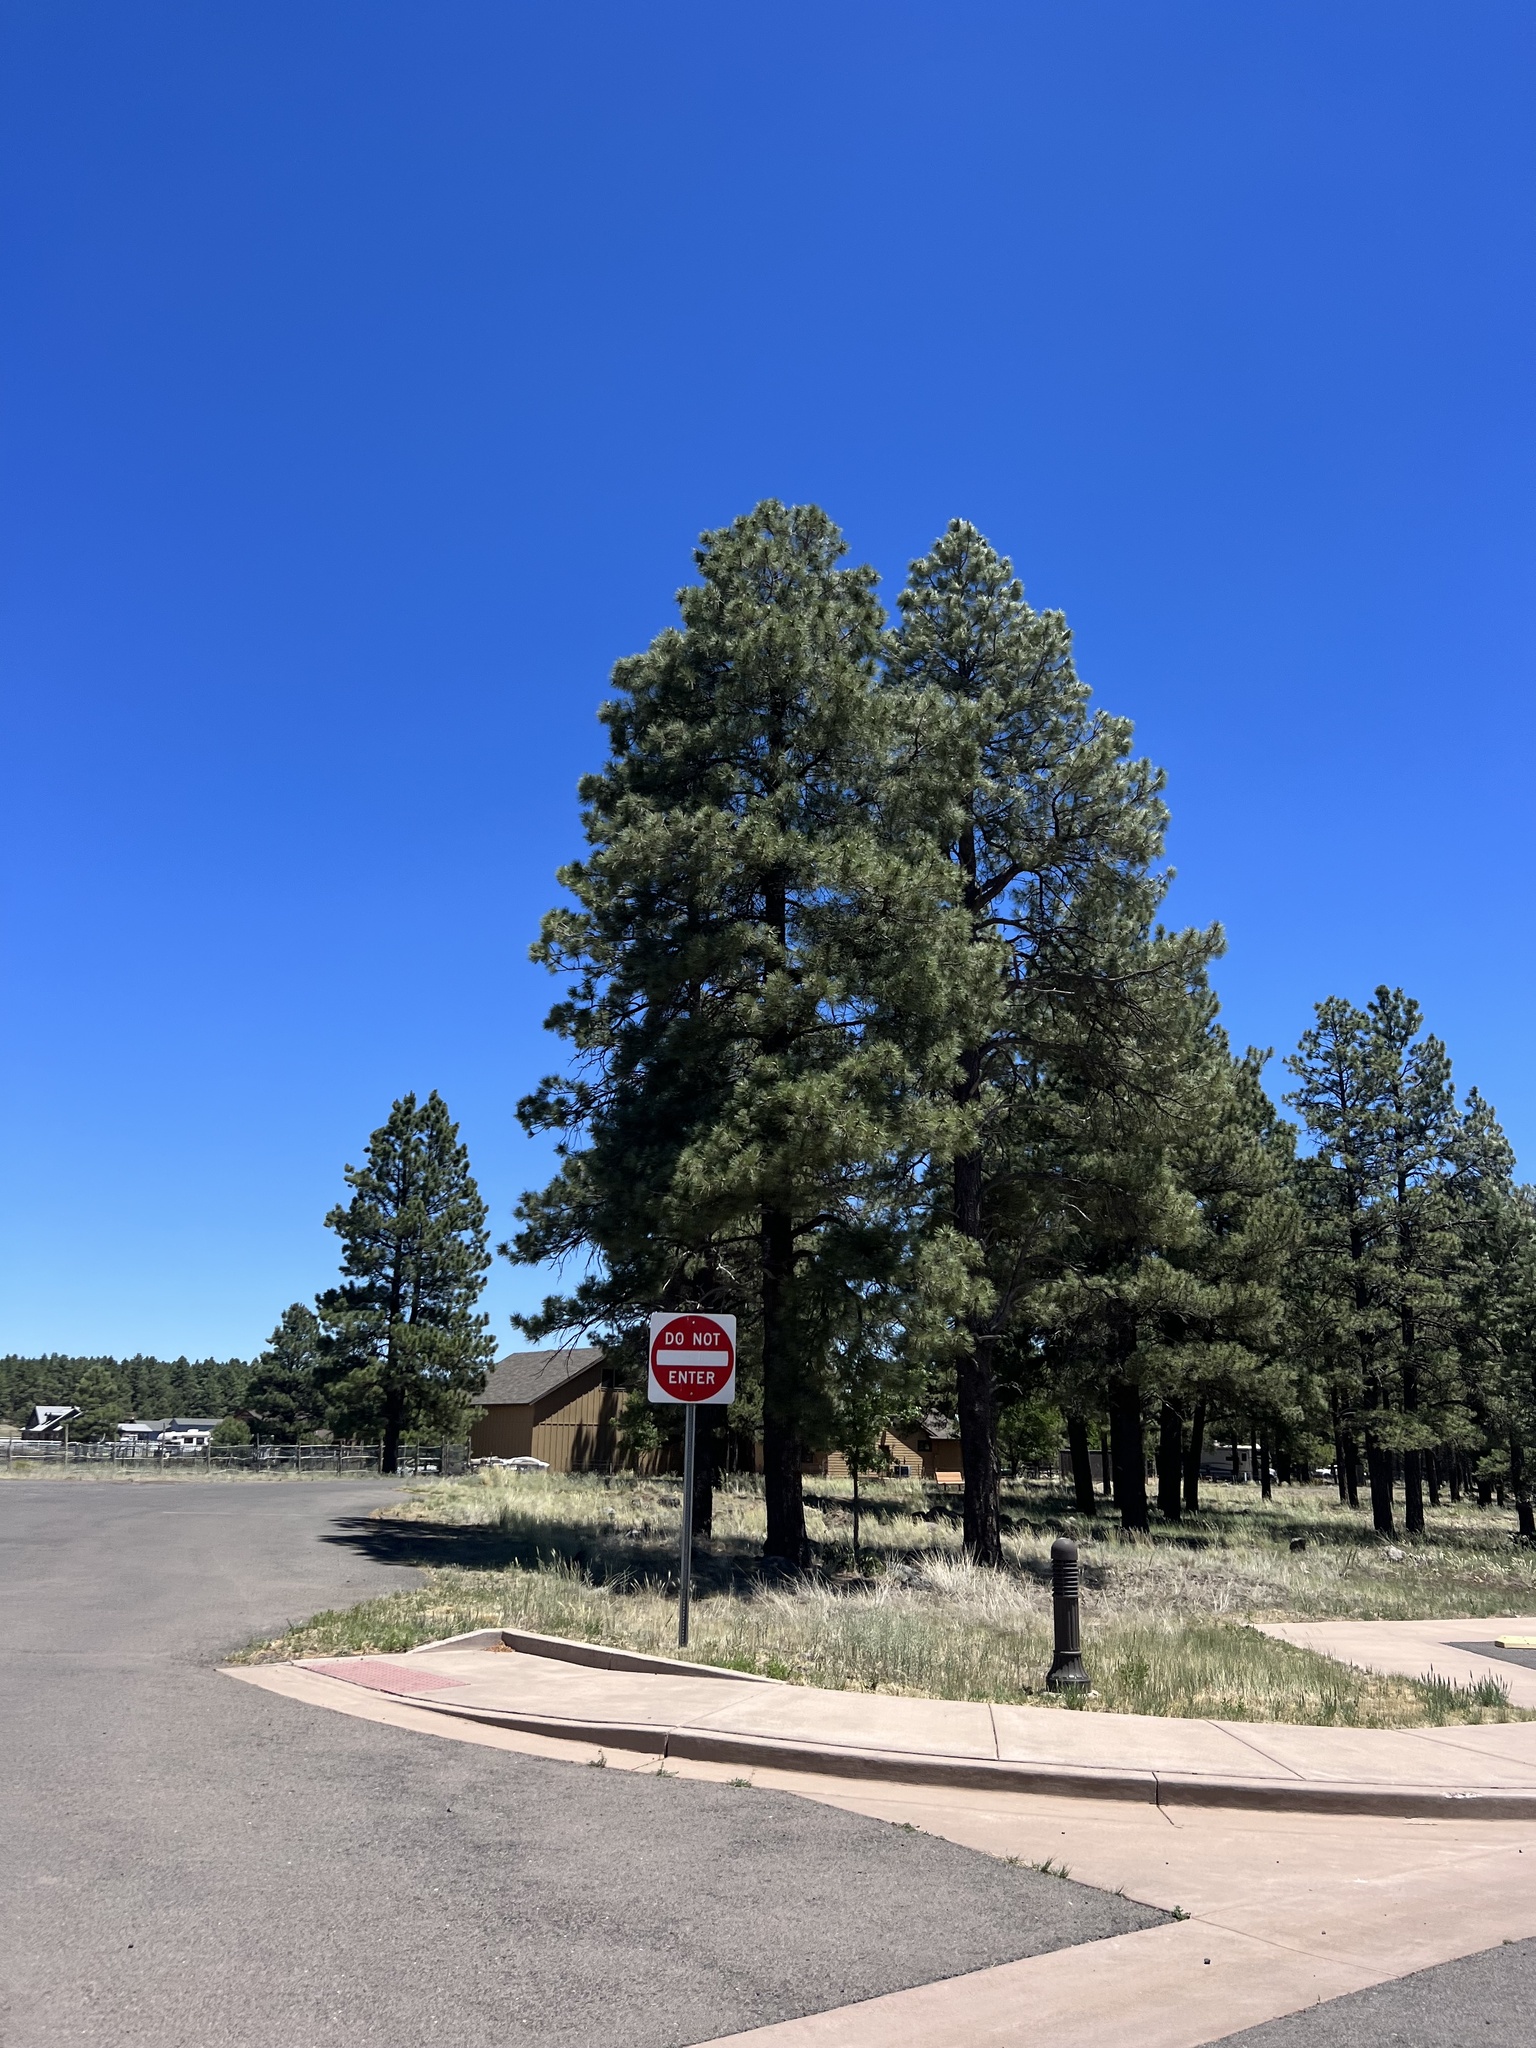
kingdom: Plantae
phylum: Tracheophyta
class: Pinopsida
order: Pinales
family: Pinaceae
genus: Pinus
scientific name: Pinus ponderosa
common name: Western yellow-pine
